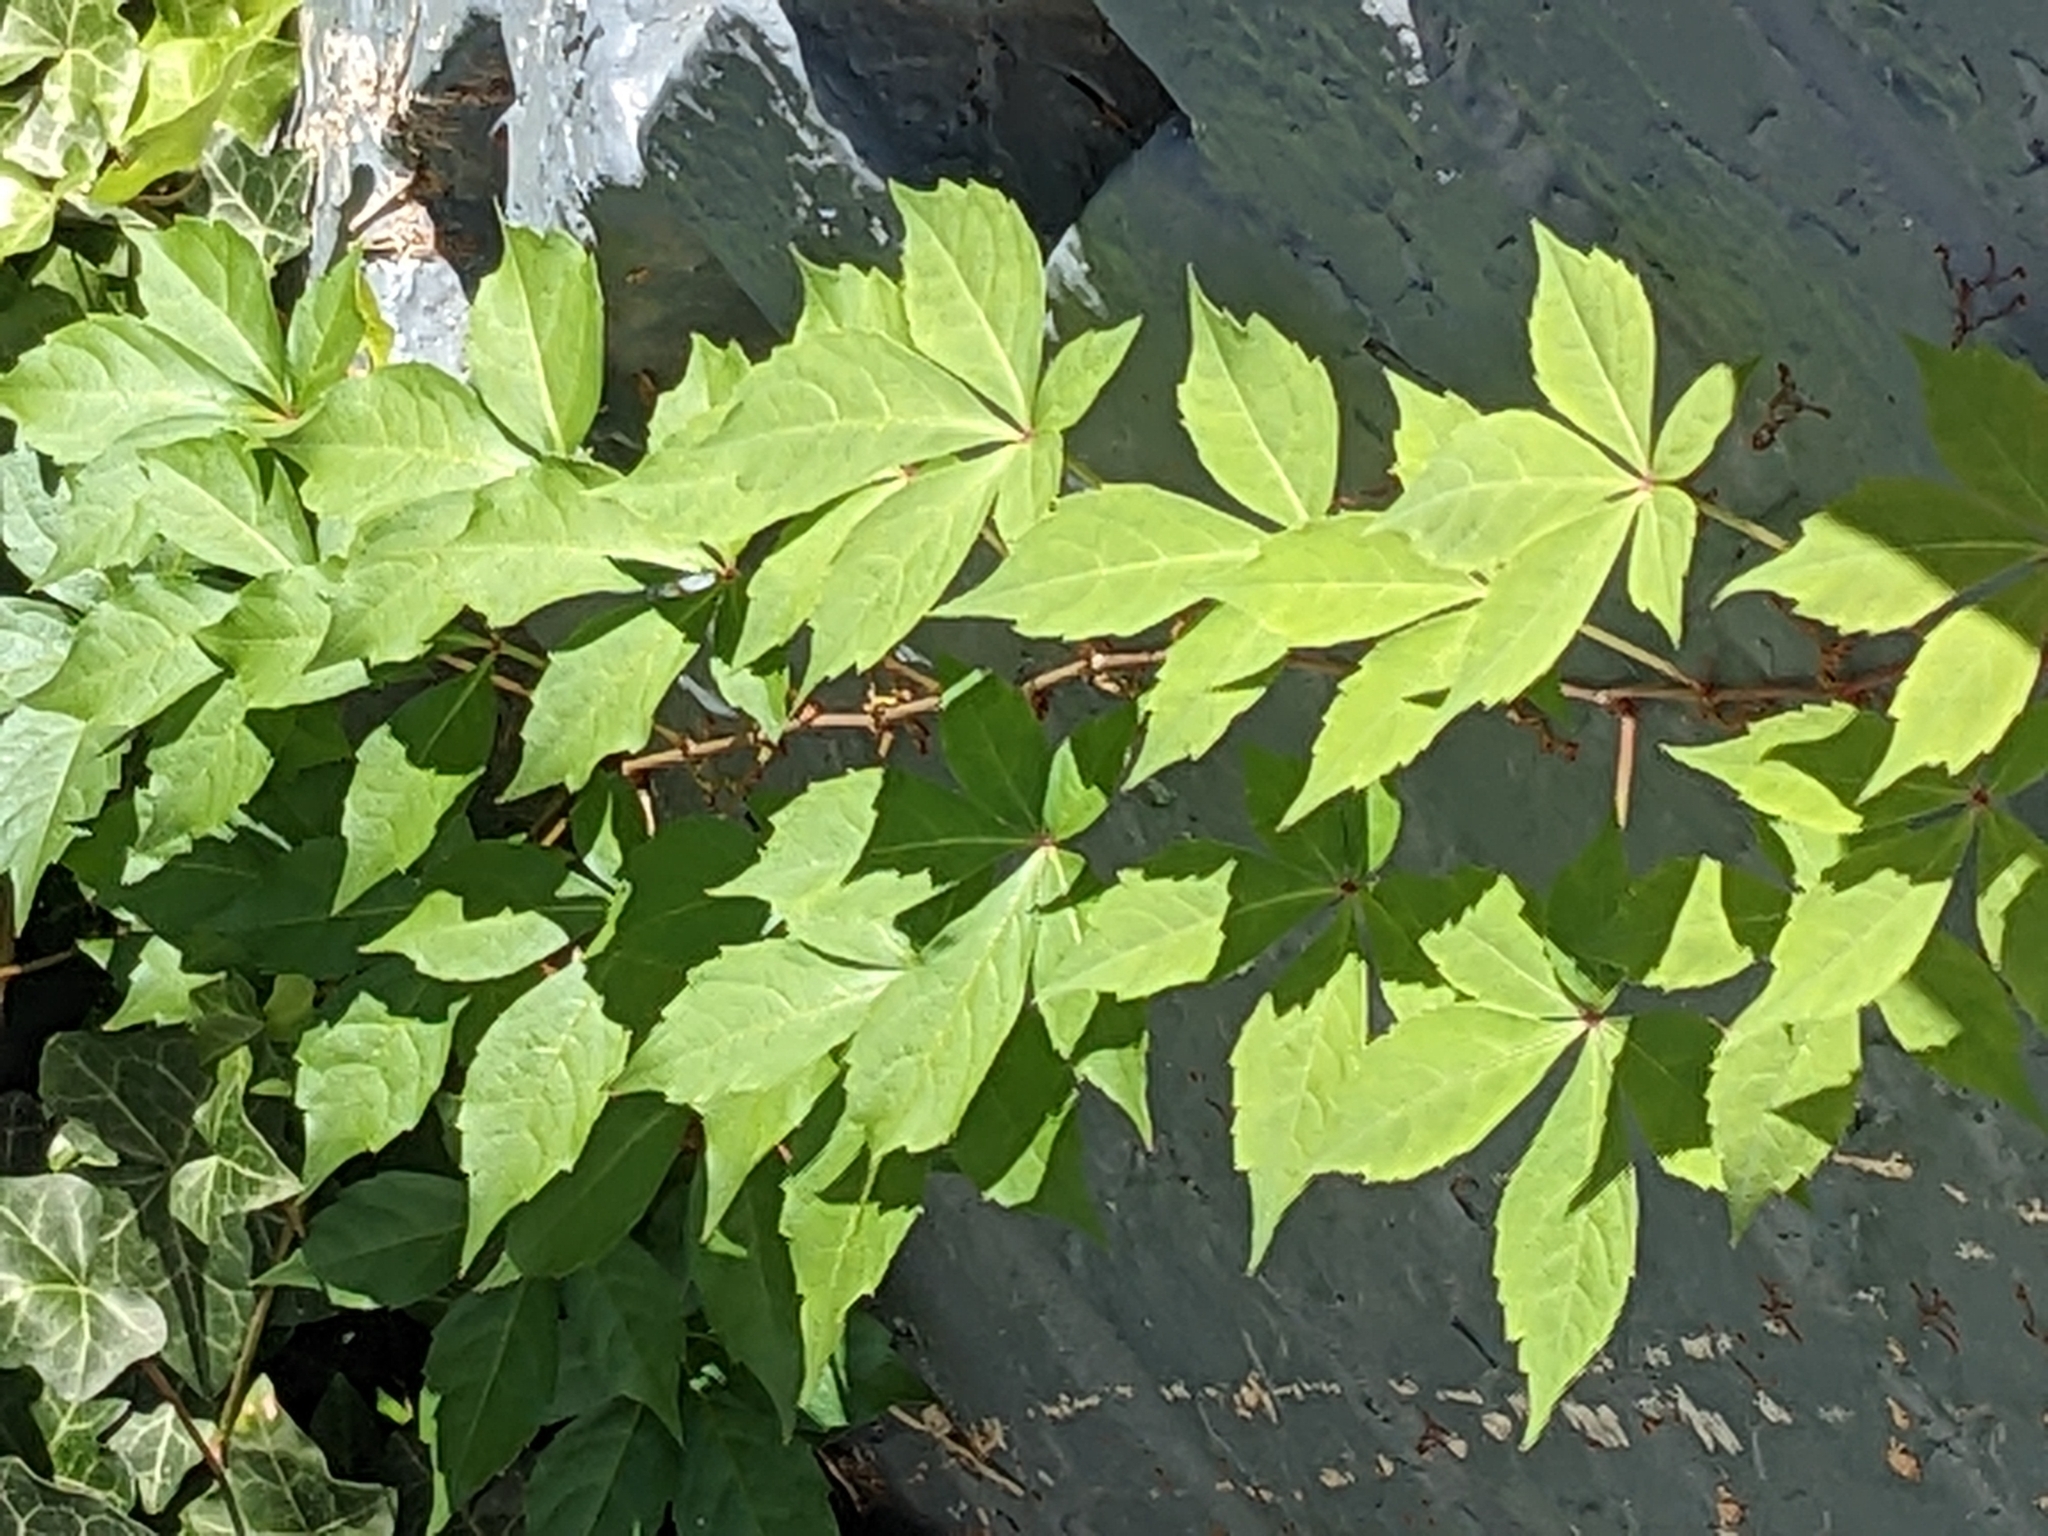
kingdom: Plantae
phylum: Tracheophyta
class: Magnoliopsida
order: Vitales
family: Vitaceae
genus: Parthenocissus
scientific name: Parthenocissus quinquefolia
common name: Virginia-creeper
